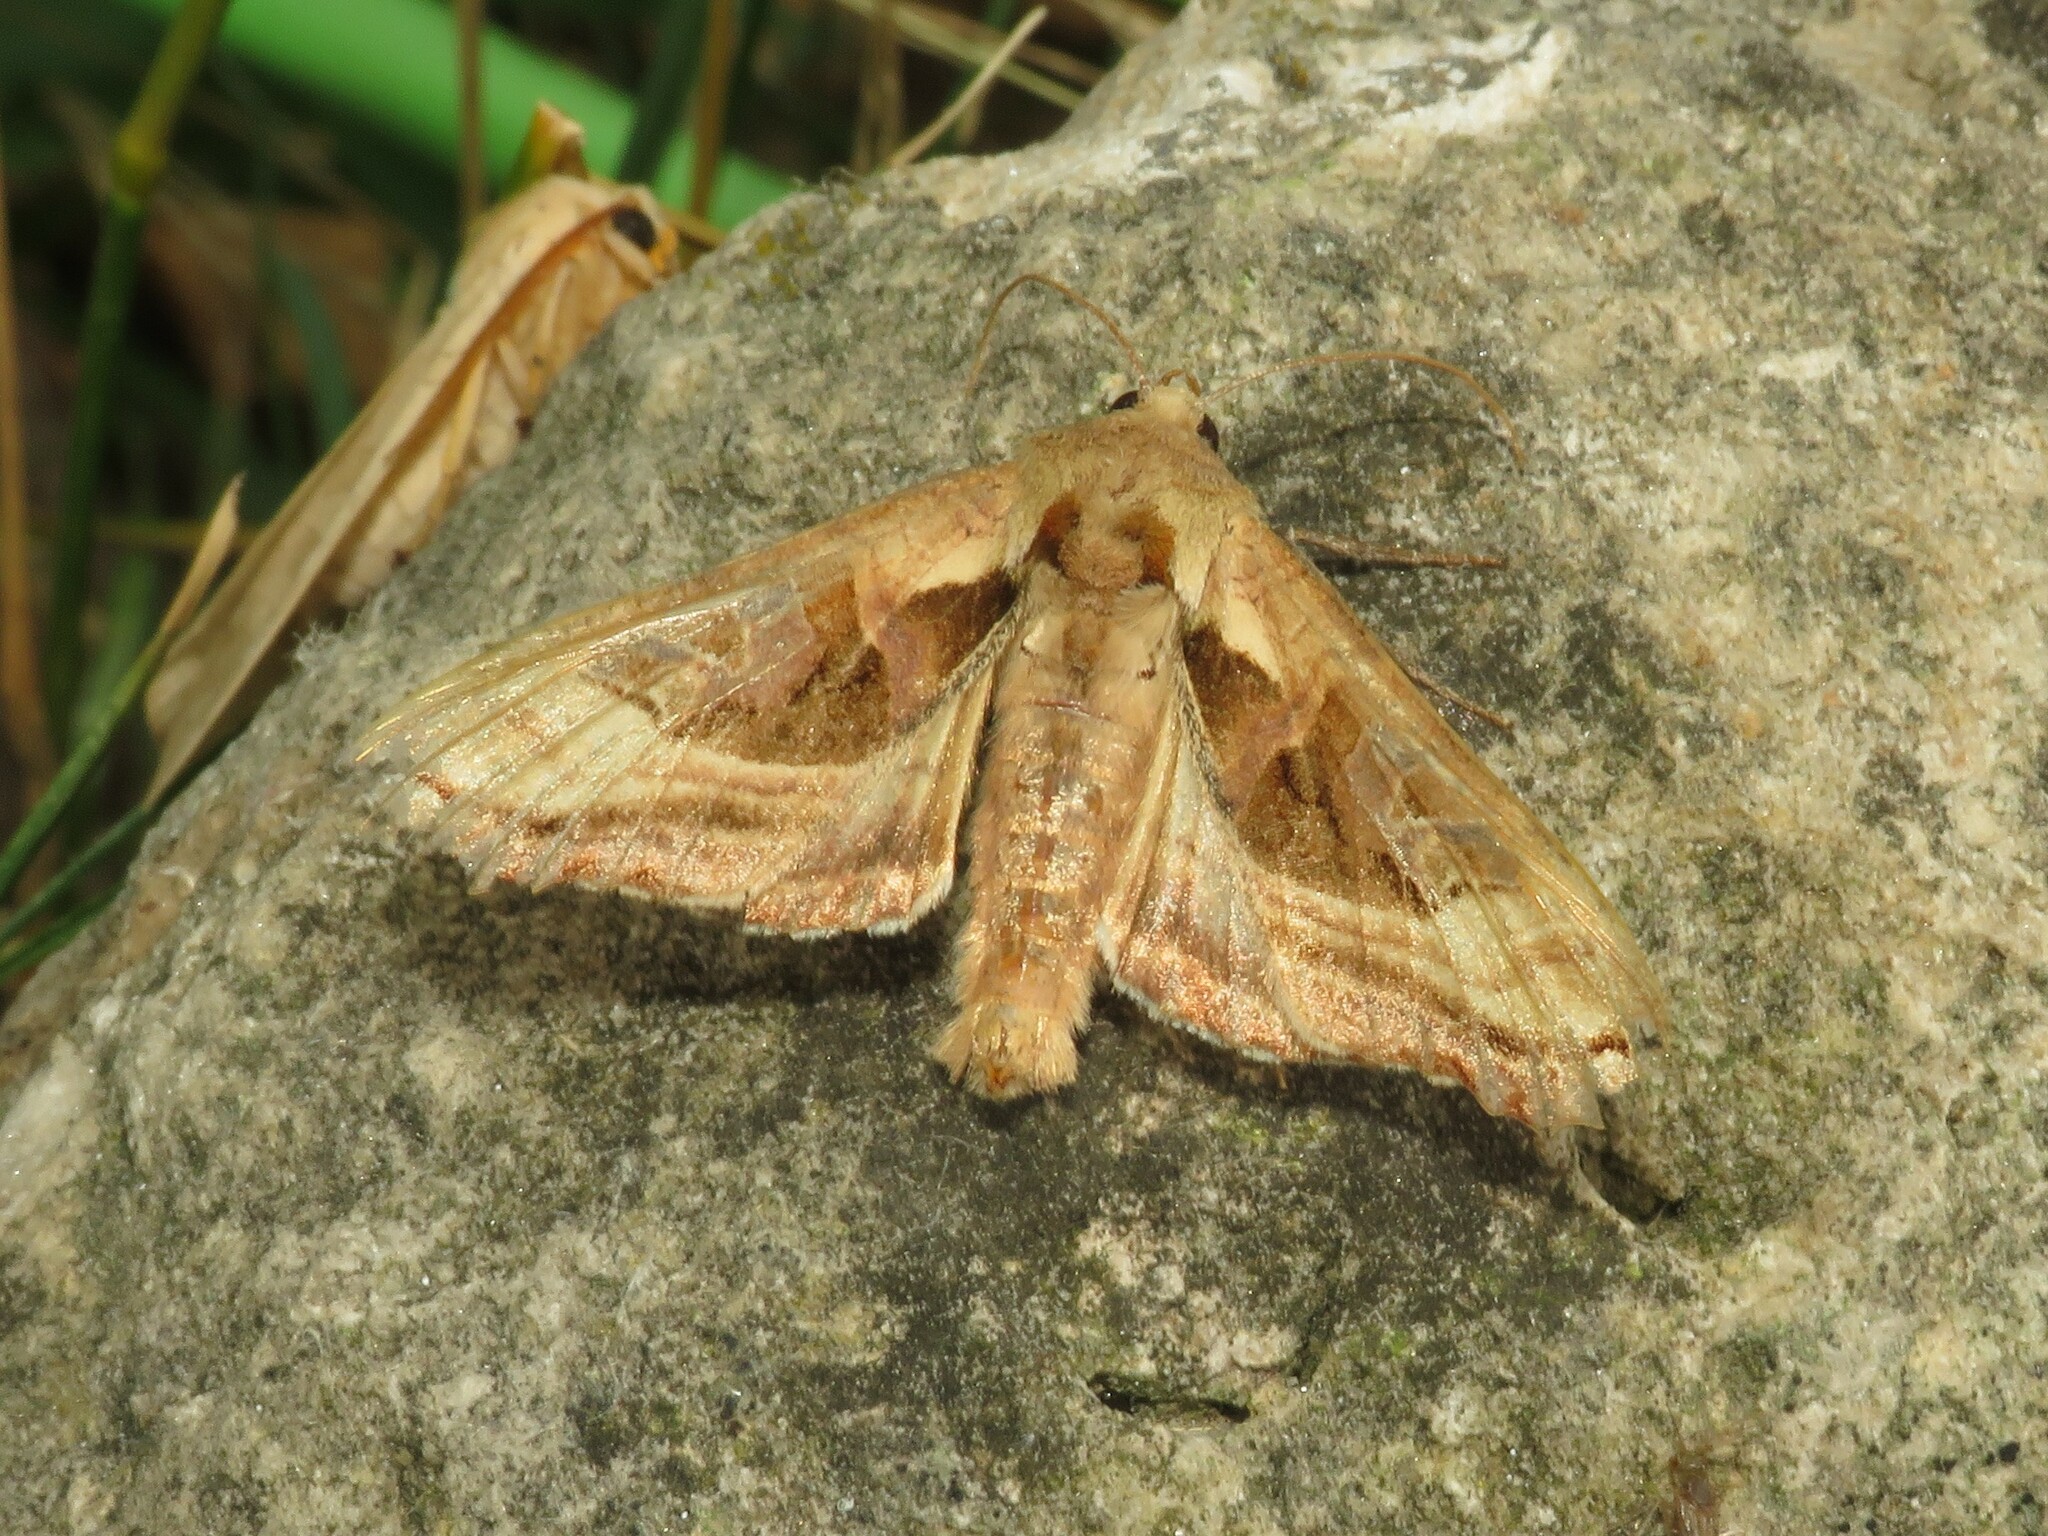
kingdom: Animalia
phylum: Arthropoda
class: Insecta
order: Lepidoptera
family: Noctuidae
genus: Phlogophora
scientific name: Phlogophora iris
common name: Olive angle shades
